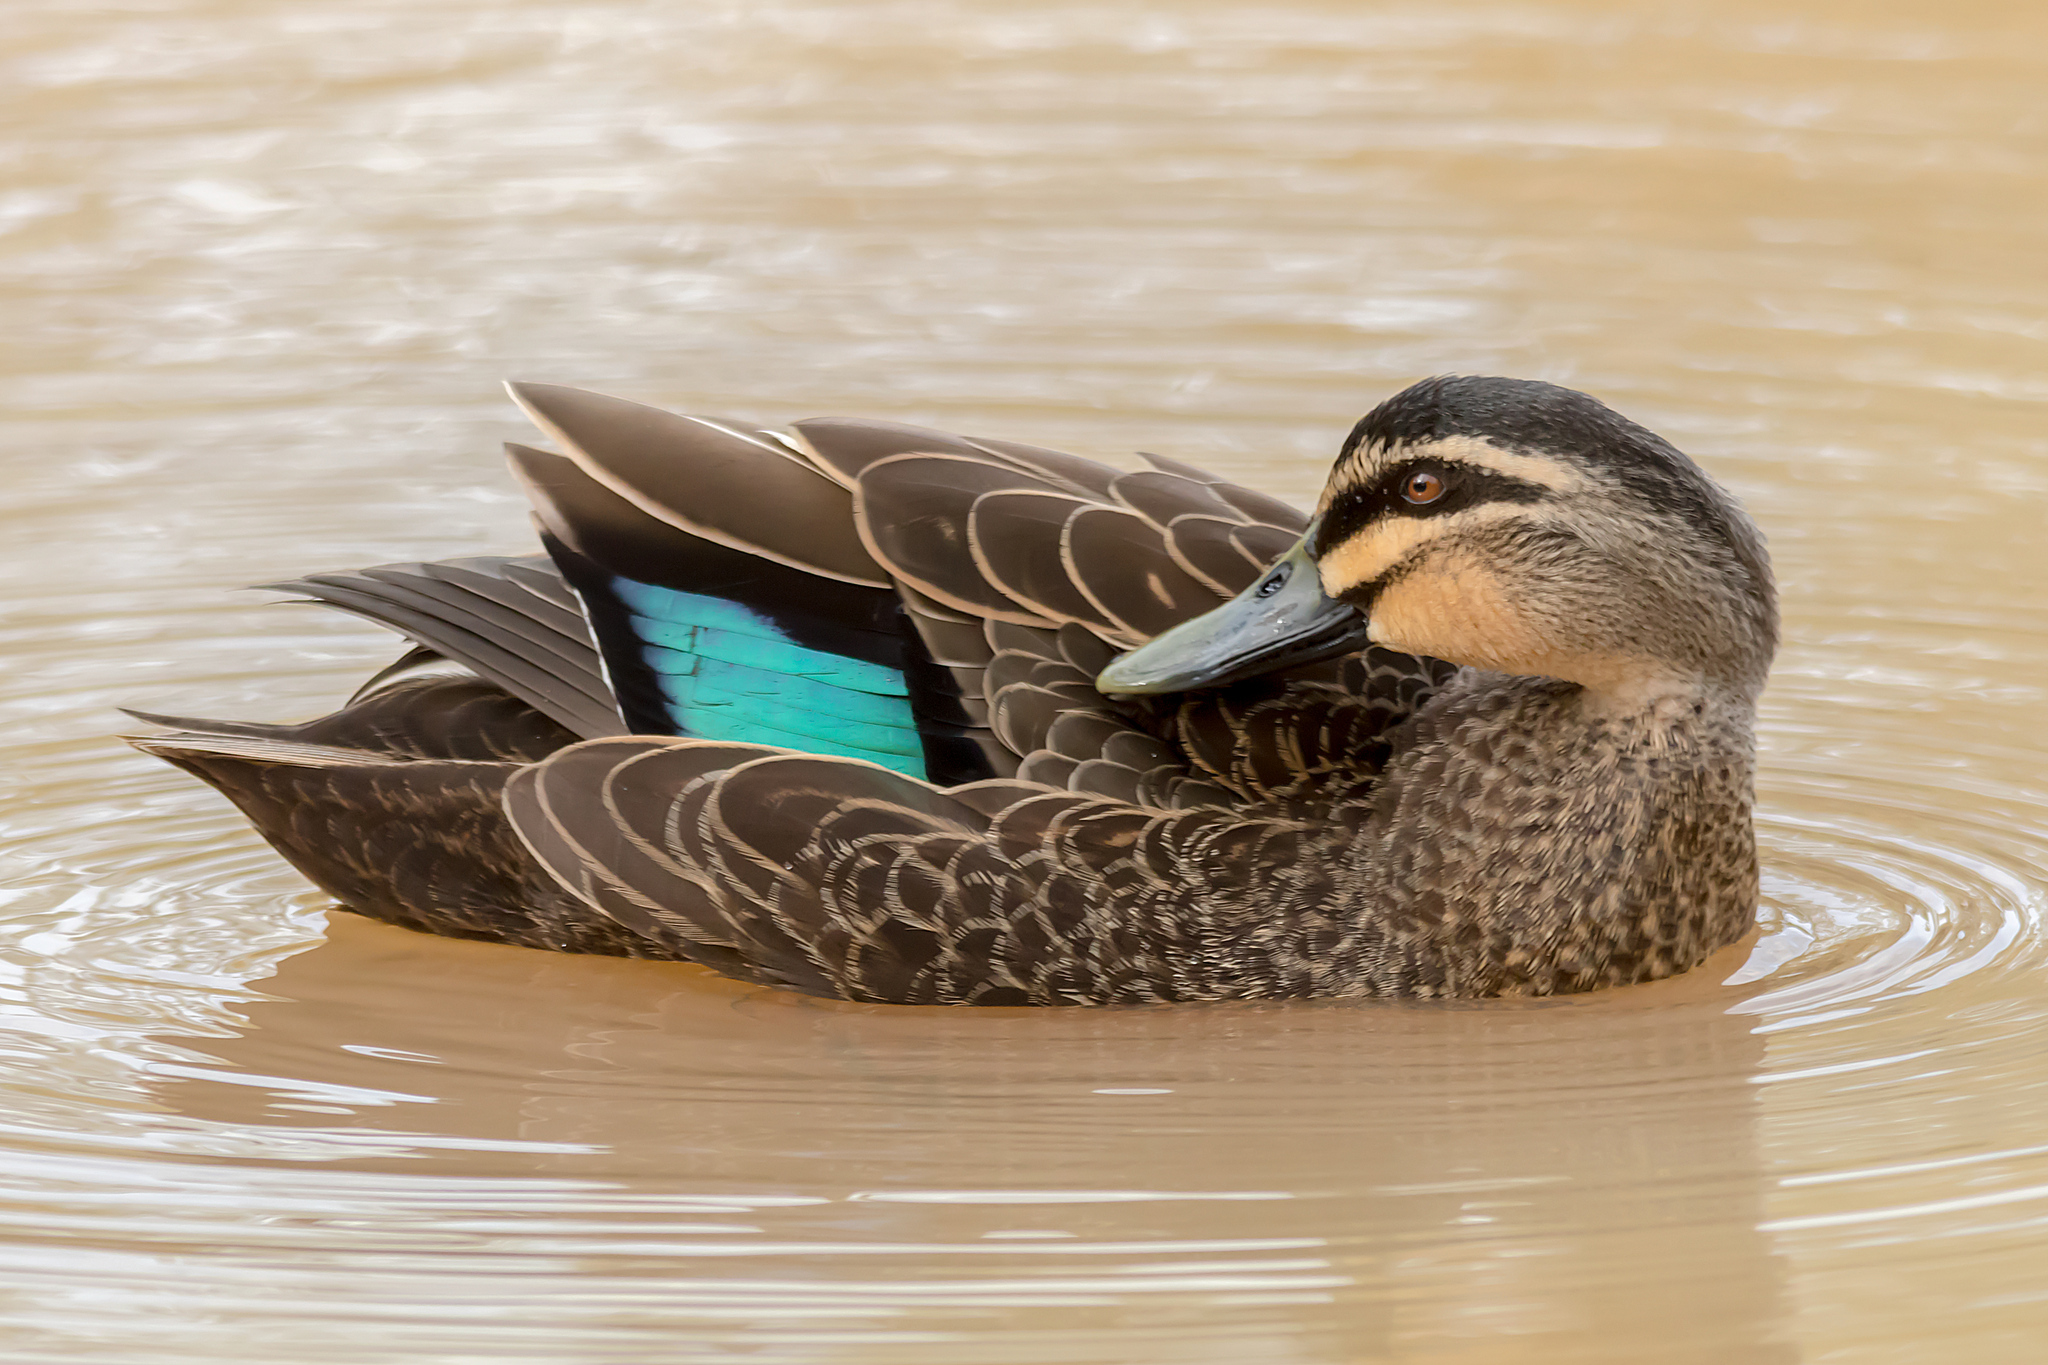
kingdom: Animalia
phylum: Chordata
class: Aves
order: Anseriformes
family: Anatidae
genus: Anas
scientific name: Anas superciliosa
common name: Pacific black duck
